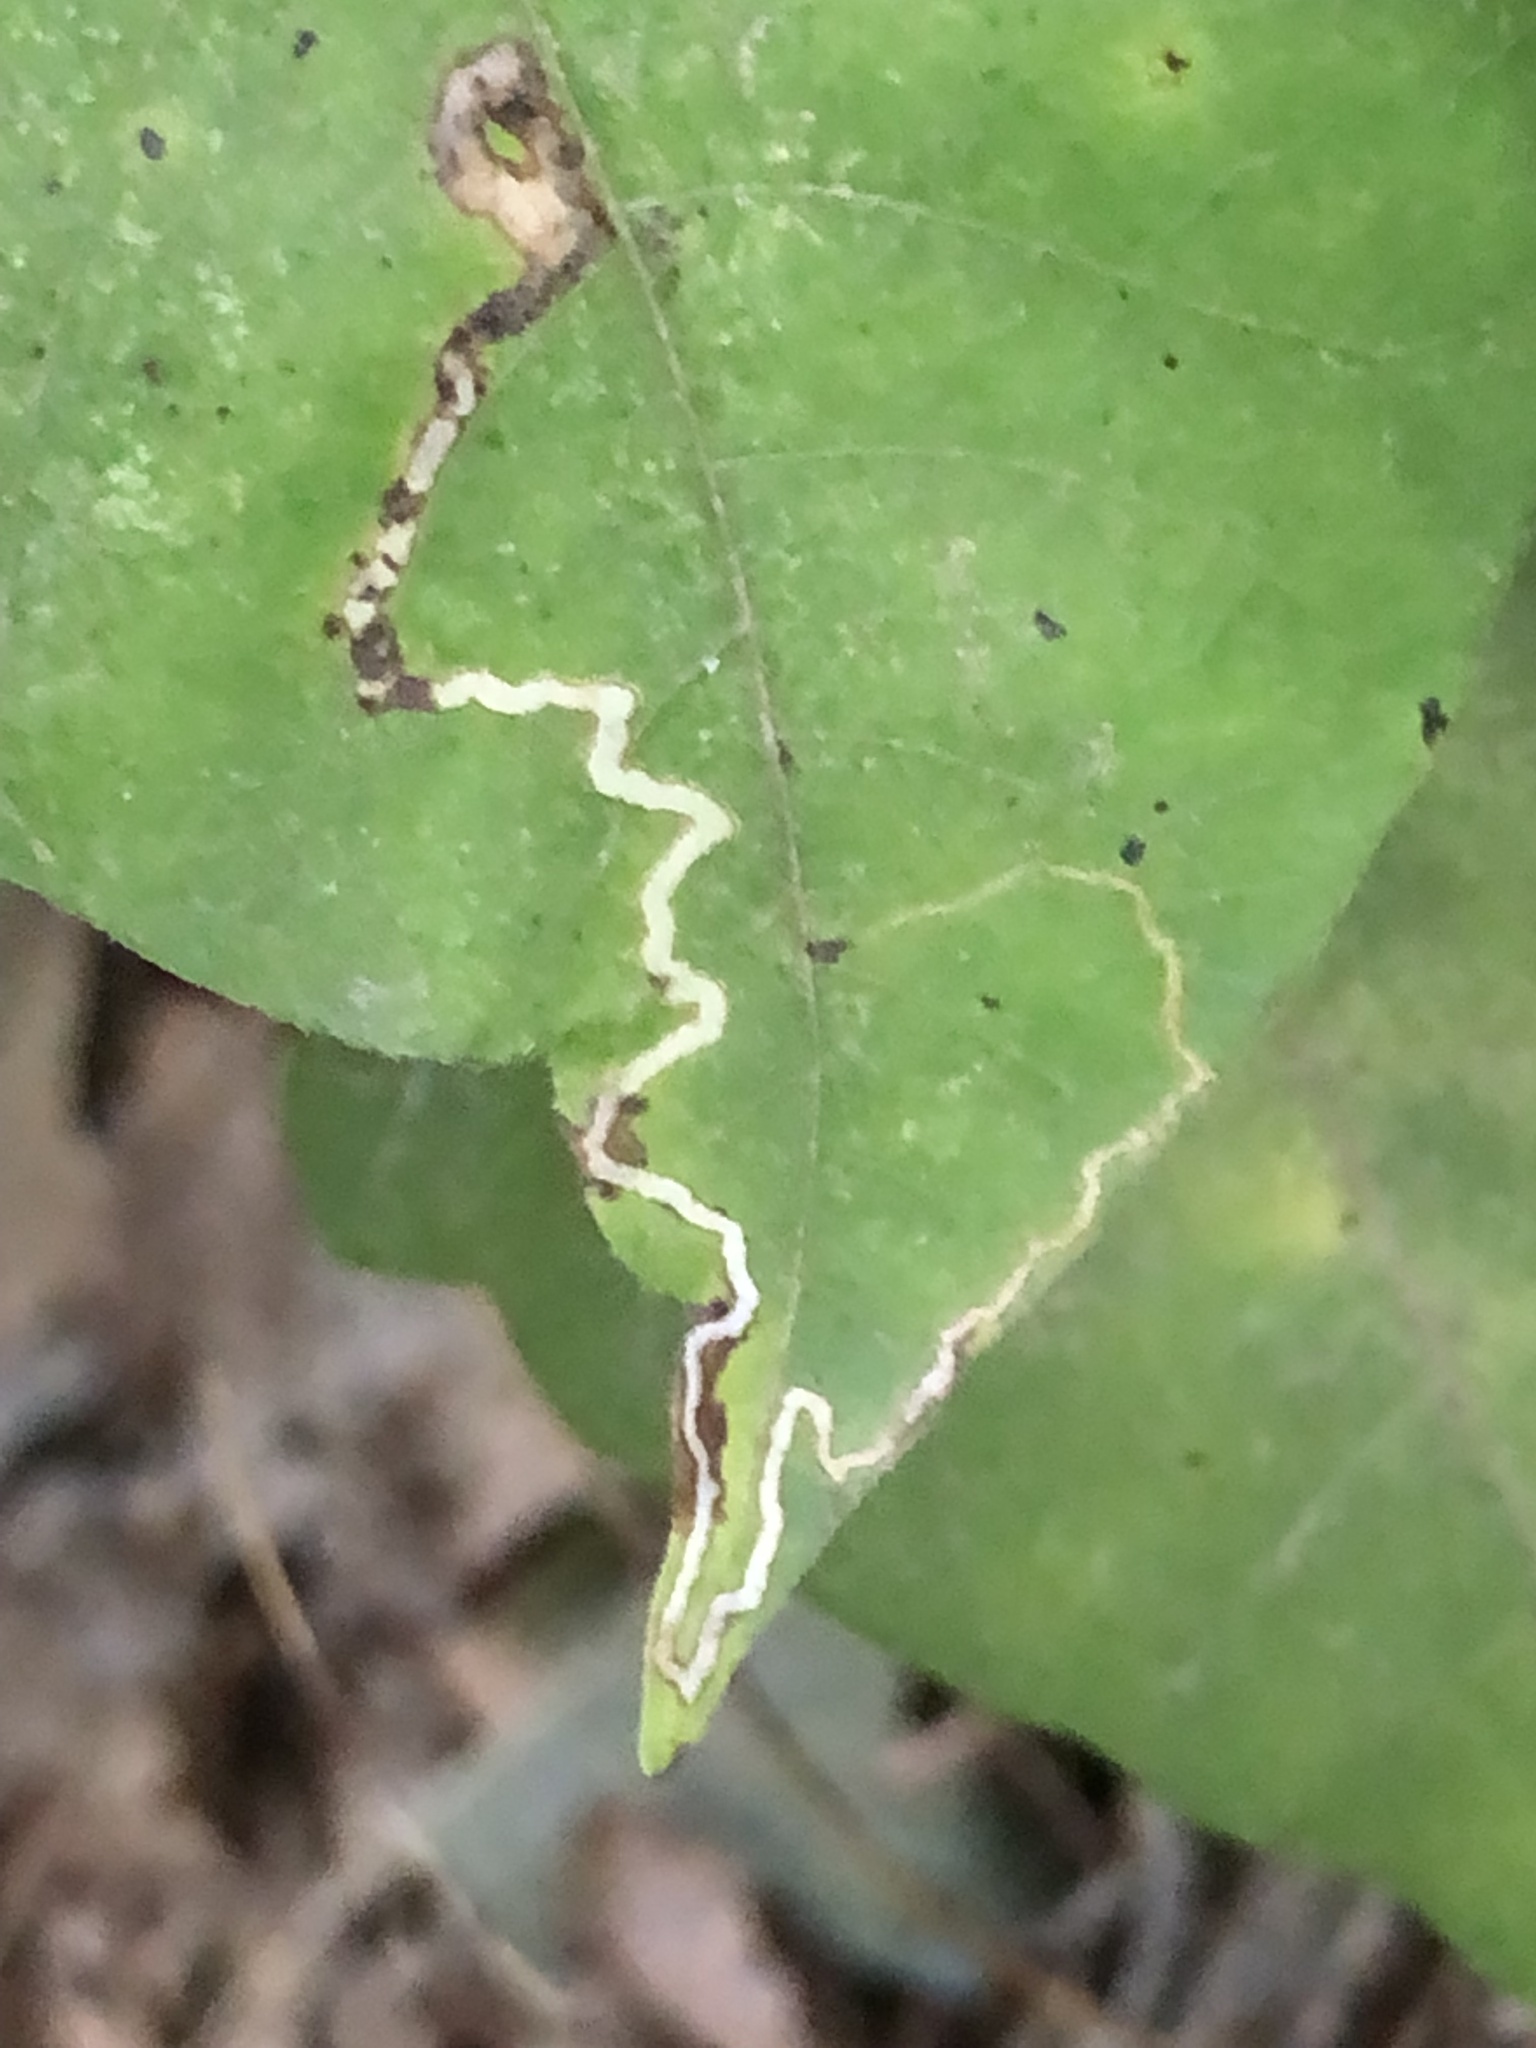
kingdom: Animalia
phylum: Arthropoda
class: Insecta
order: Lepidoptera
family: Nepticulidae
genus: Stigmella
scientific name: Stigmella rhoifoliella
